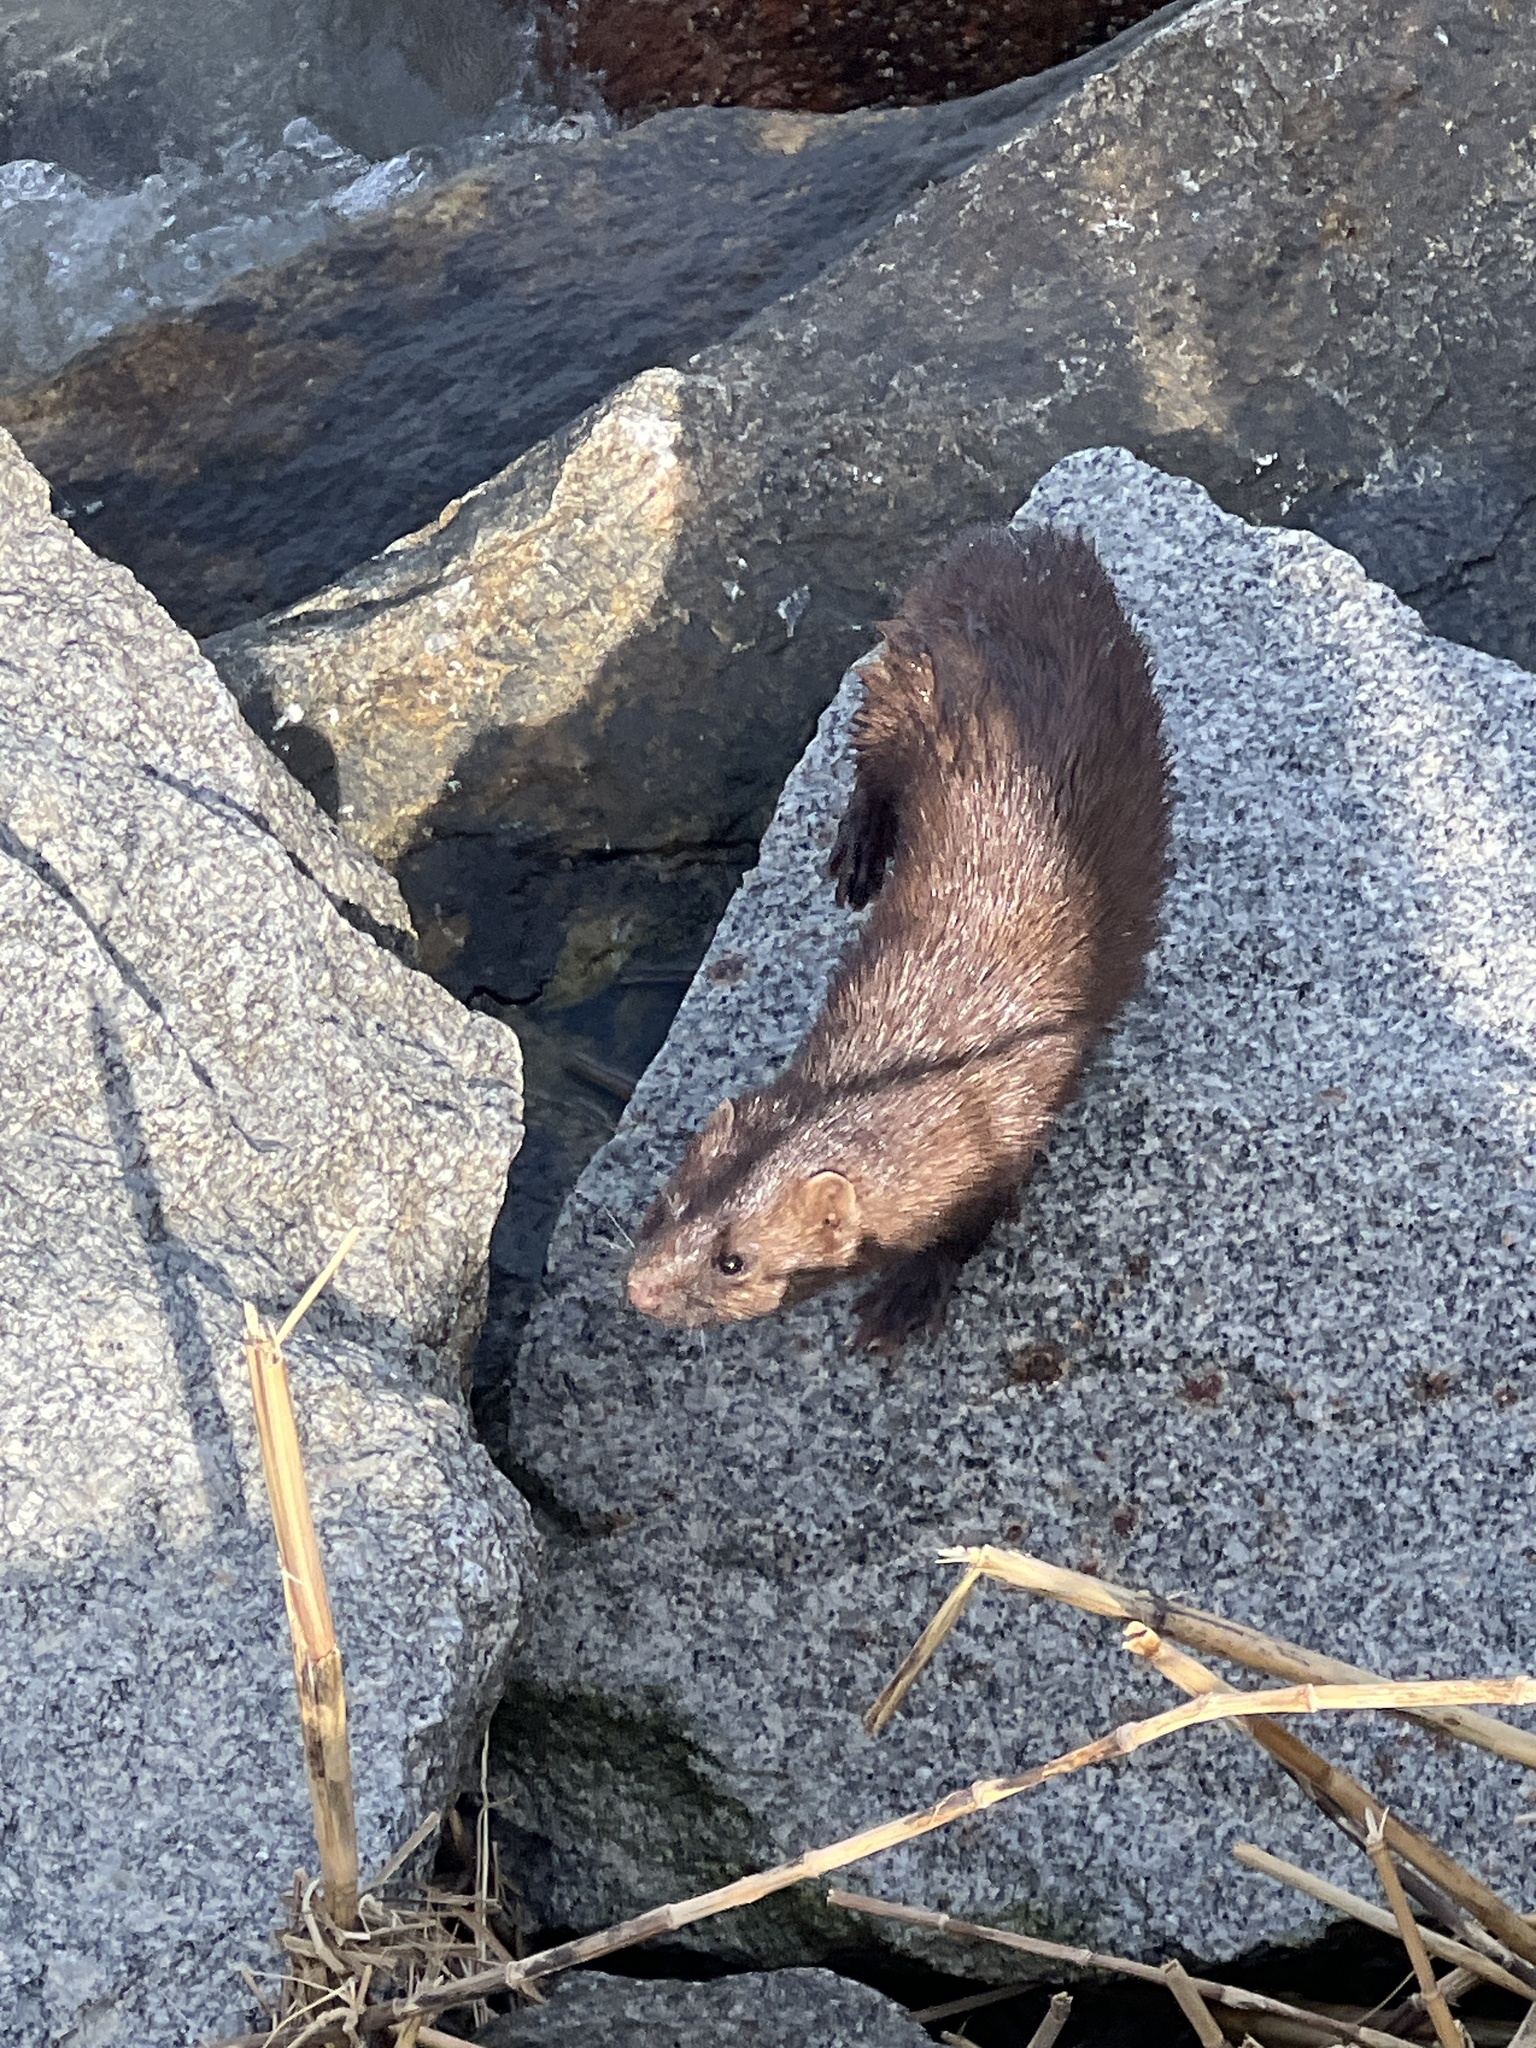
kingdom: Animalia
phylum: Chordata
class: Mammalia
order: Carnivora
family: Mustelidae
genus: Mustela
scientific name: Mustela
